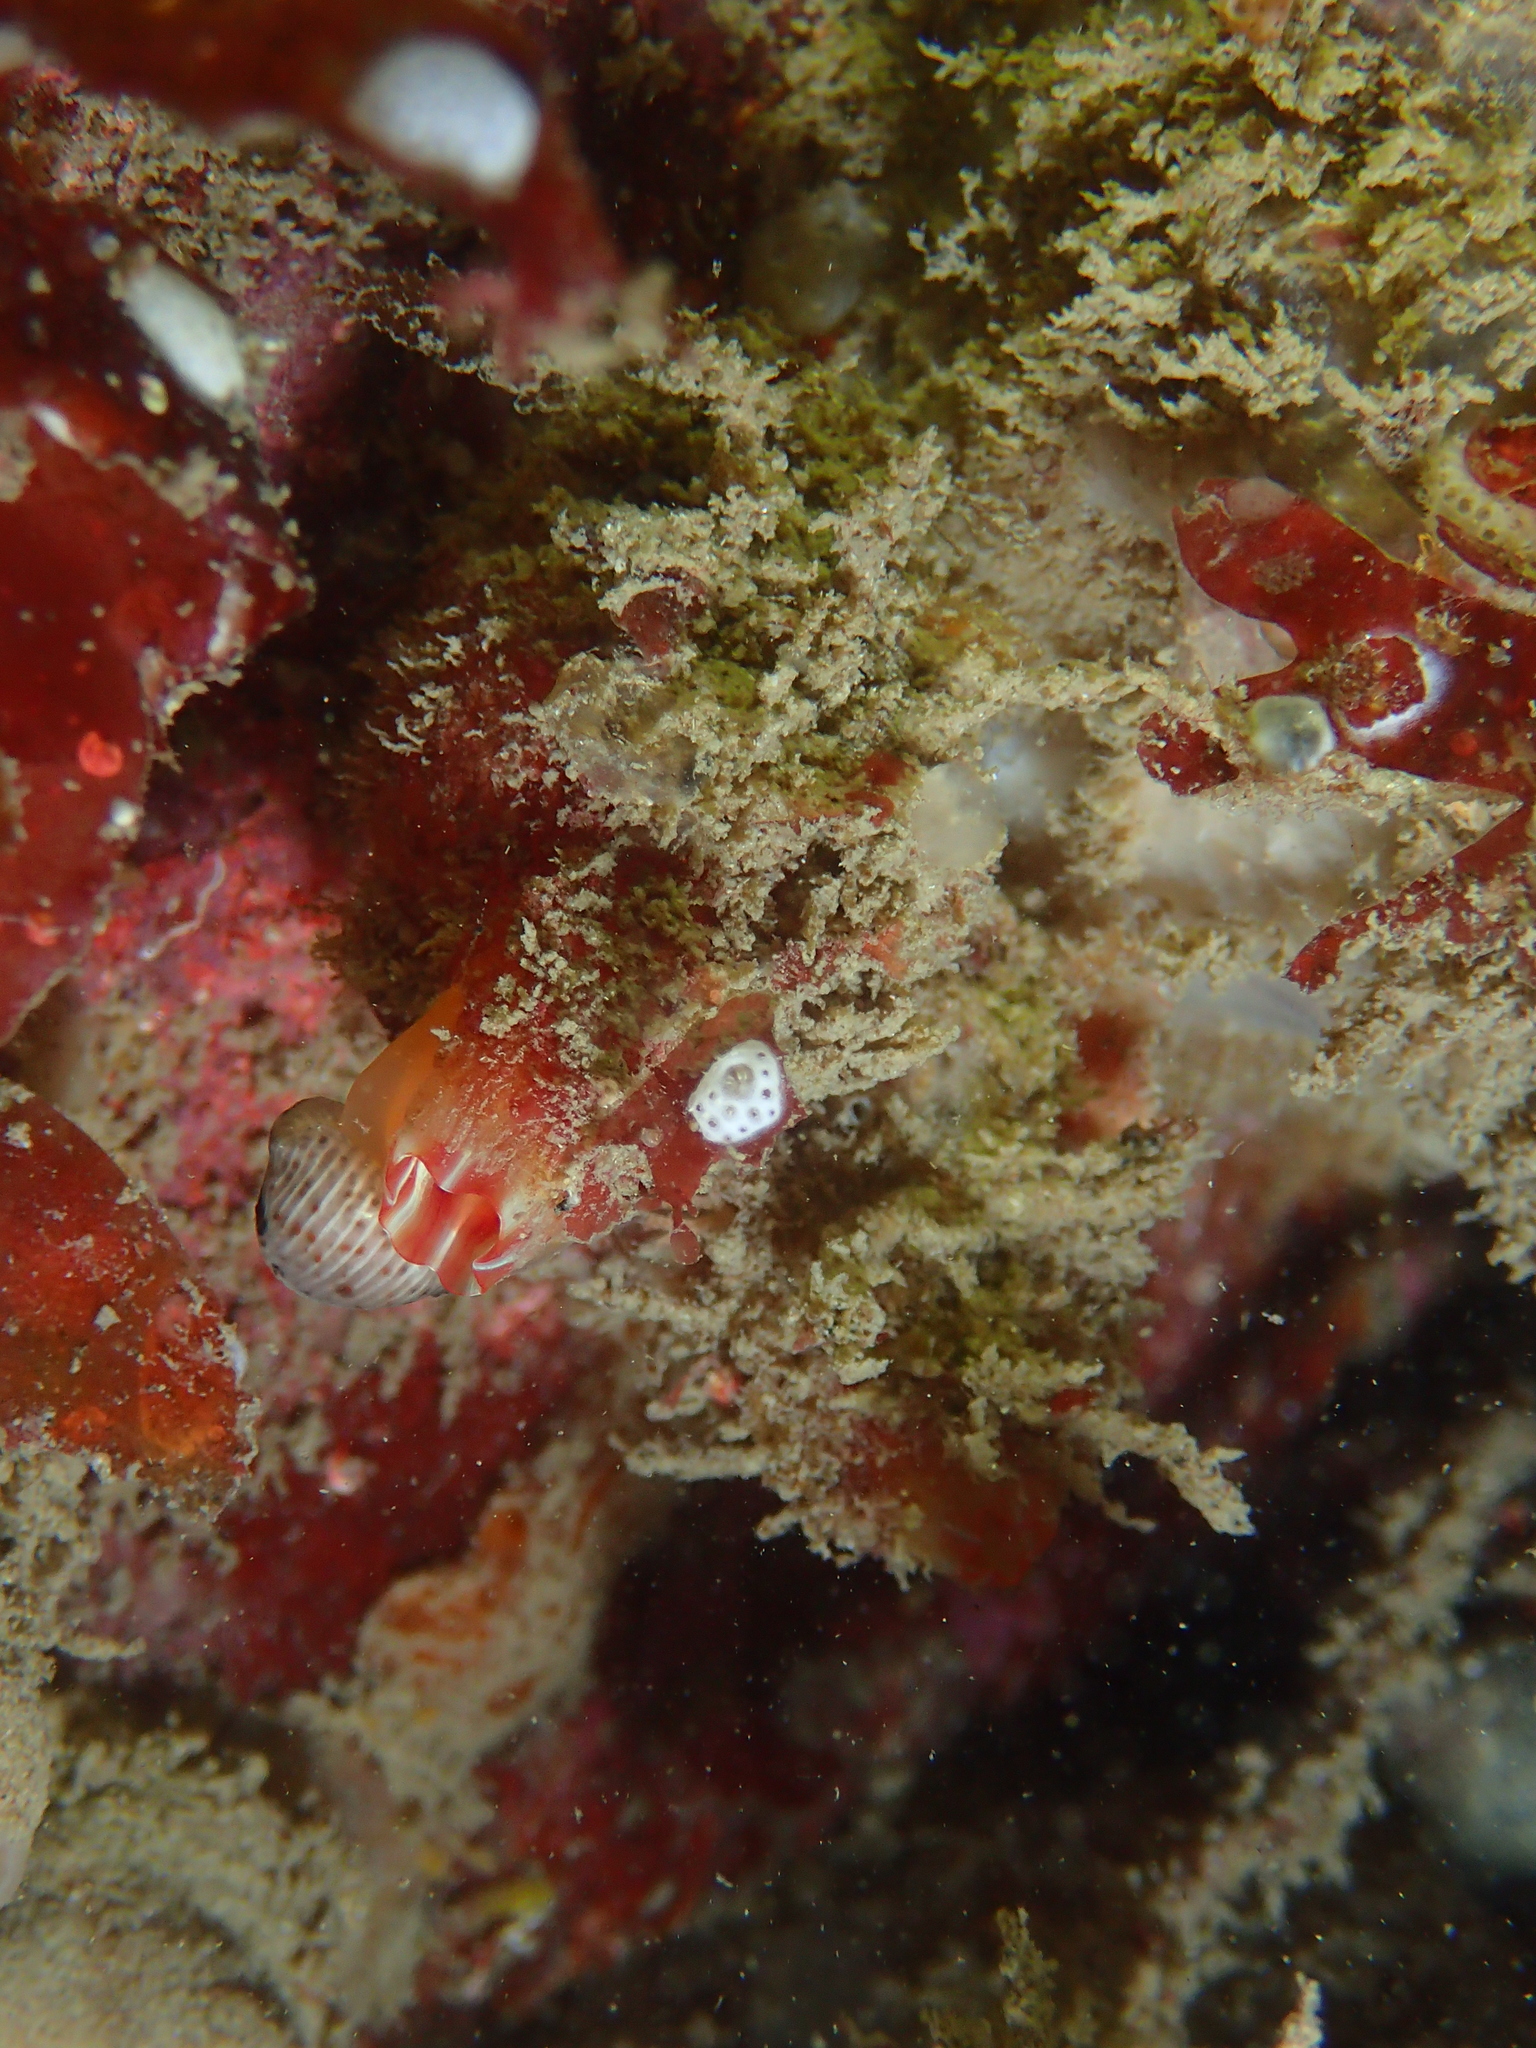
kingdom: Animalia
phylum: Chordata
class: Ascidiacea
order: Stolidobranchia
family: Pyuridae
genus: Pyura
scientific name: Pyura microcosmus
